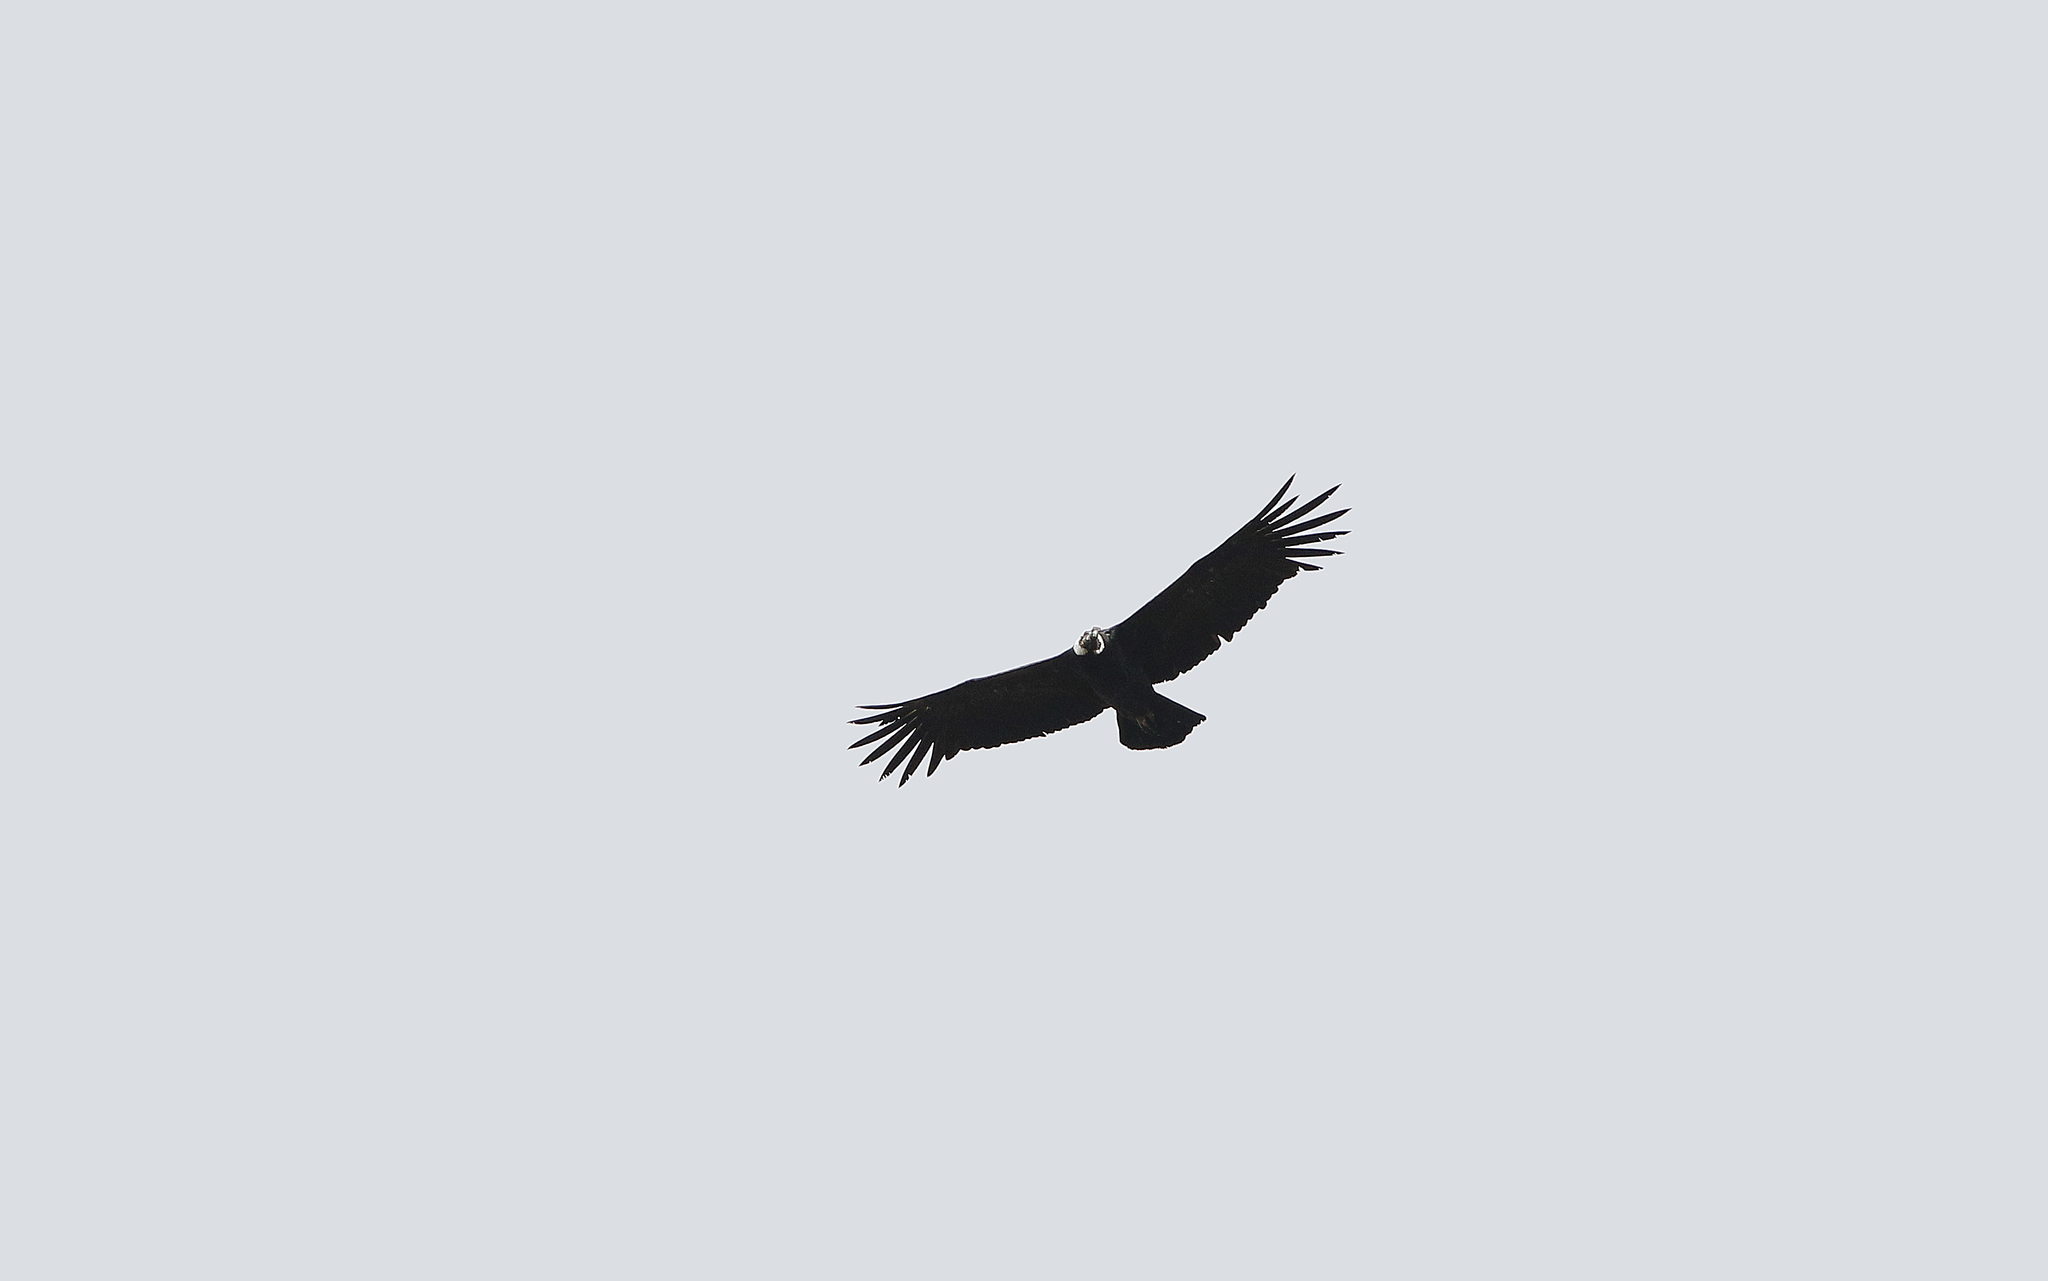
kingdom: Animalia
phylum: Chordata
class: Aves
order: Accipitriformes
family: Cathartidae
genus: Vultur
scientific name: Vultur gryphus
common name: Andean condor
